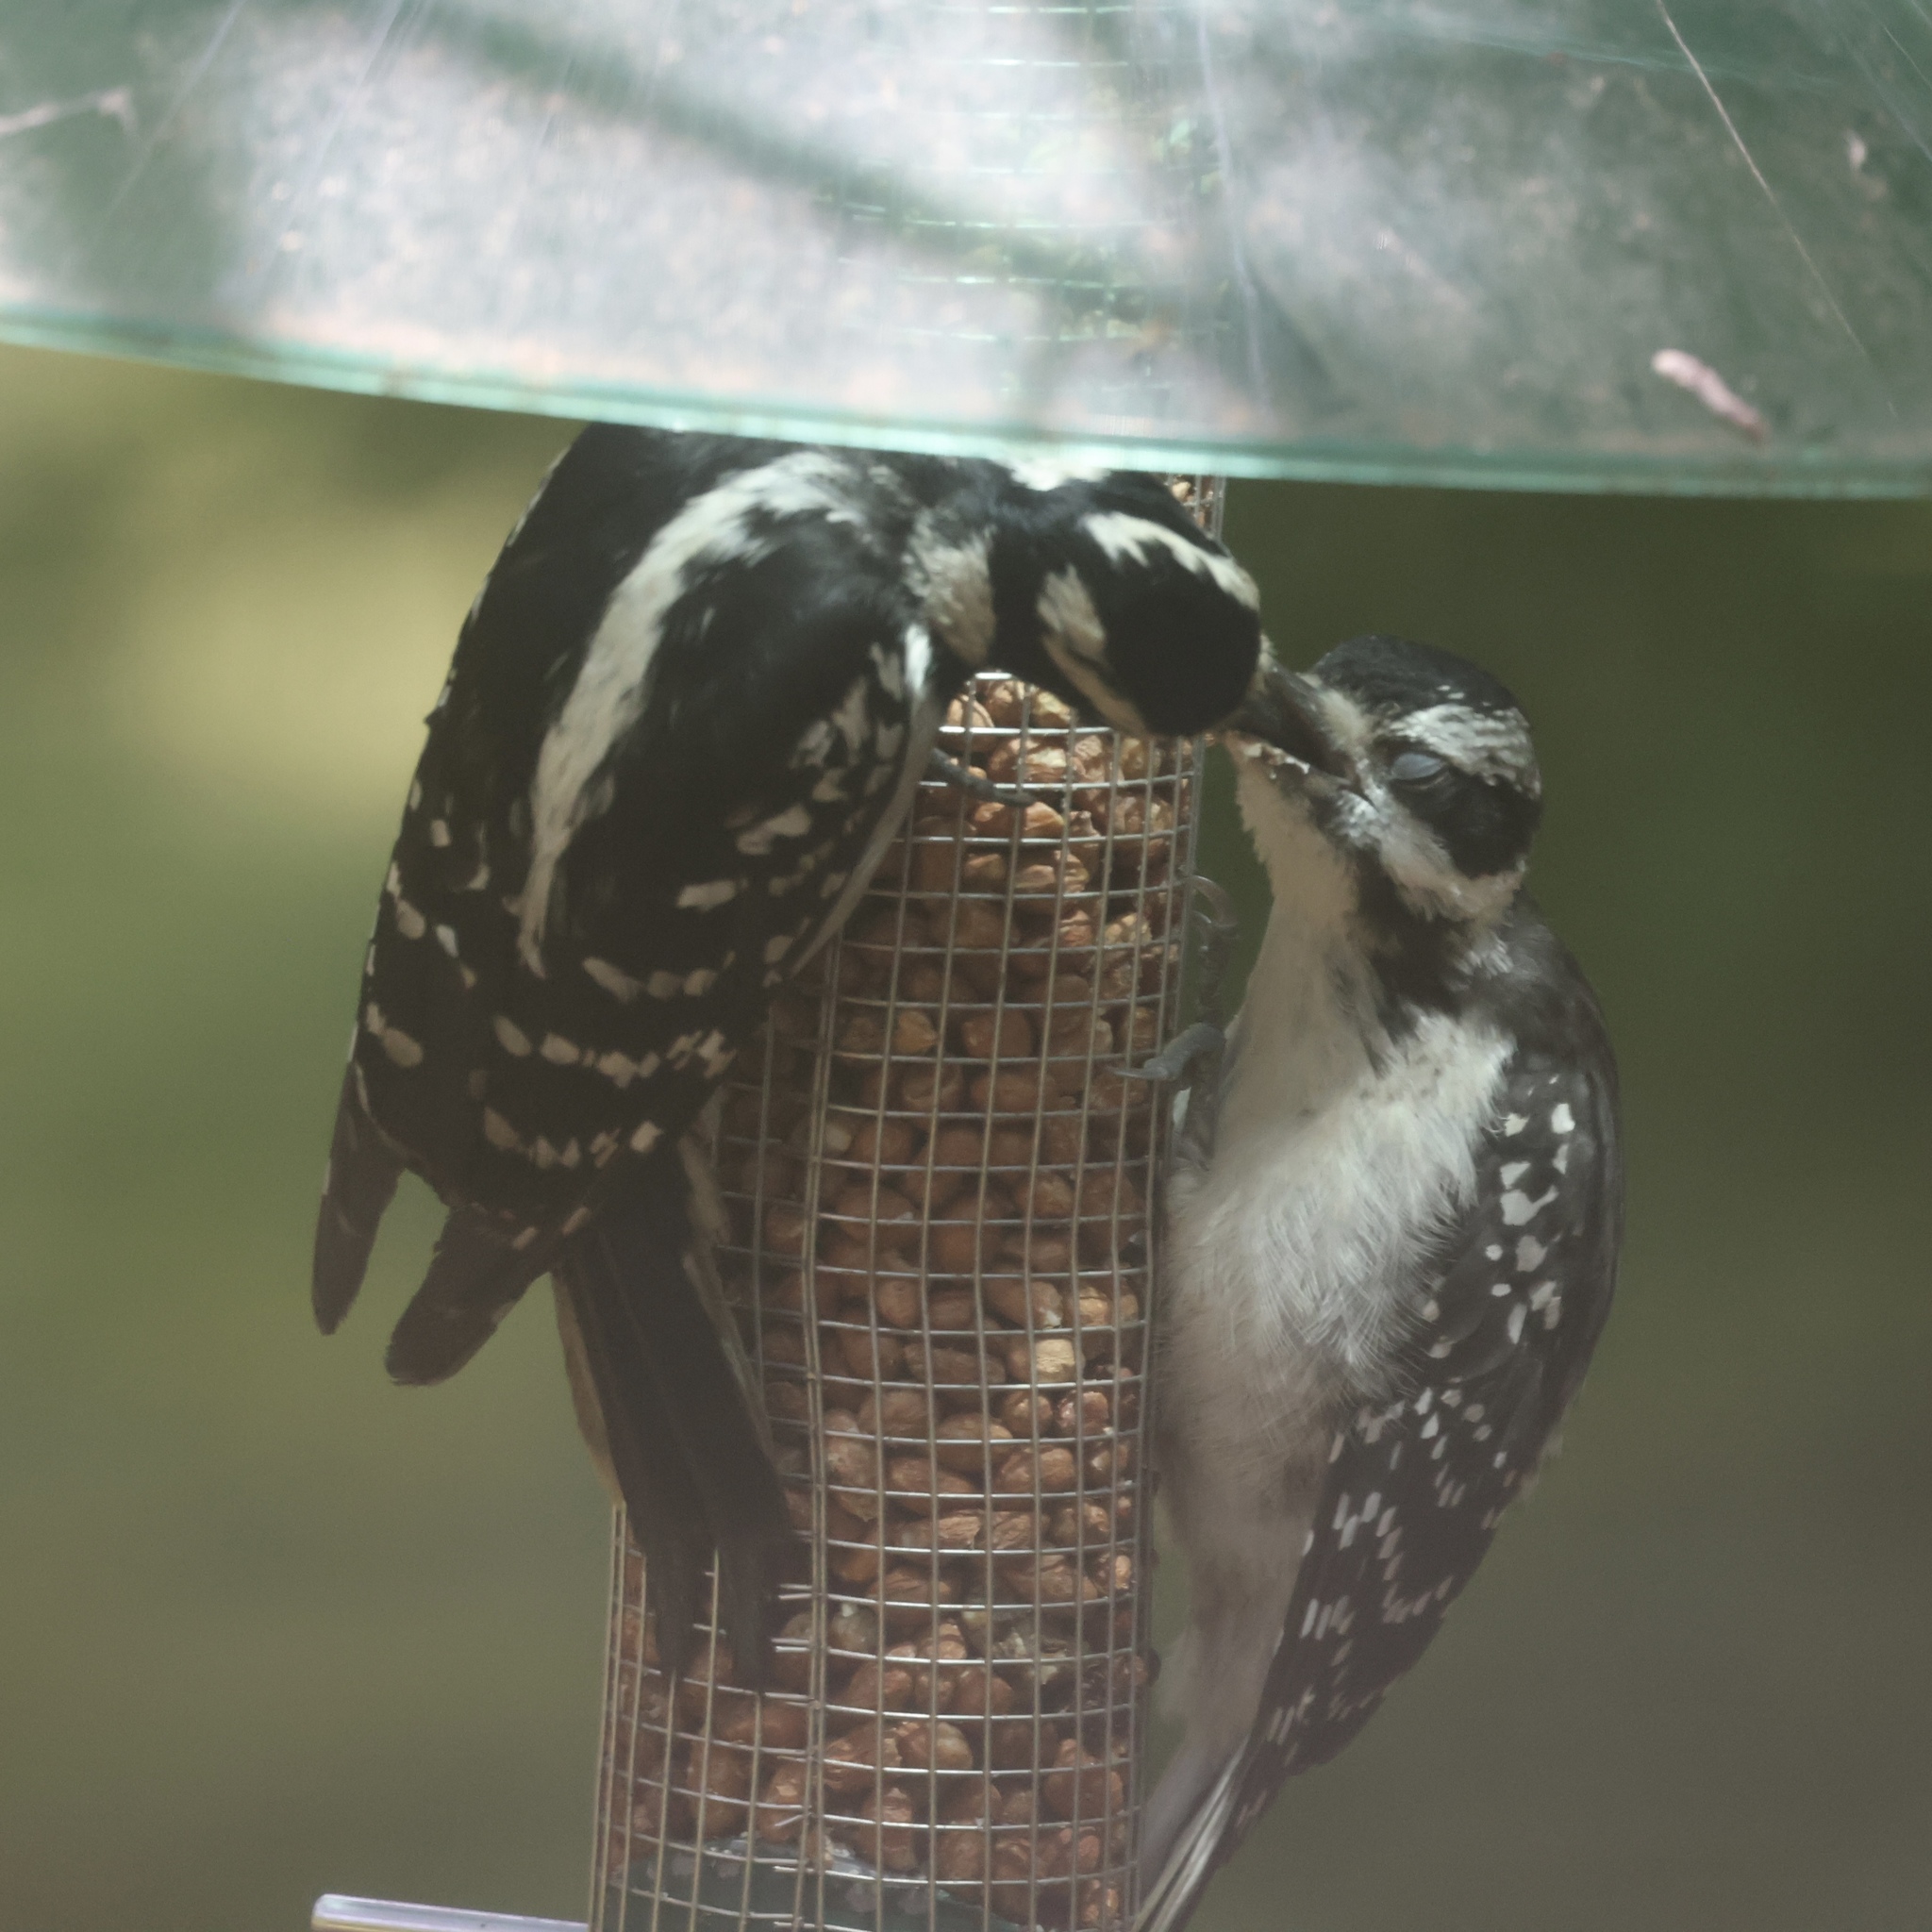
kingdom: Animalia
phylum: Chordata
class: Aves
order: Piciformes
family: Picidae
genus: Leuconotopicus
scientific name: Leuconotopicus villosus
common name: Hairy woodpecker
